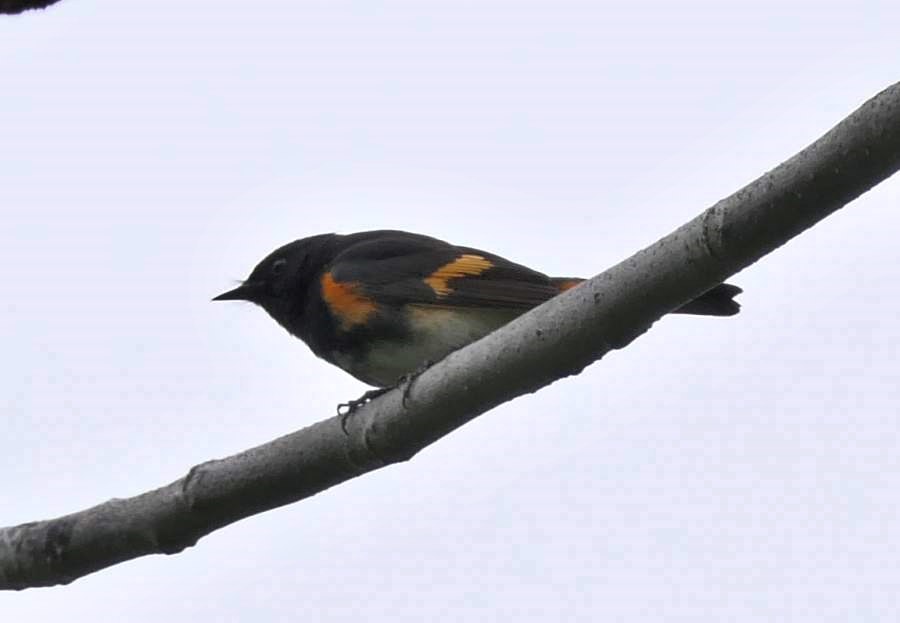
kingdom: Animalia
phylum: Chordata
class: Aves
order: Passeriformes
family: Parulidae
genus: Setophaga
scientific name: Setophaga ruticilla
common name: American redstart
